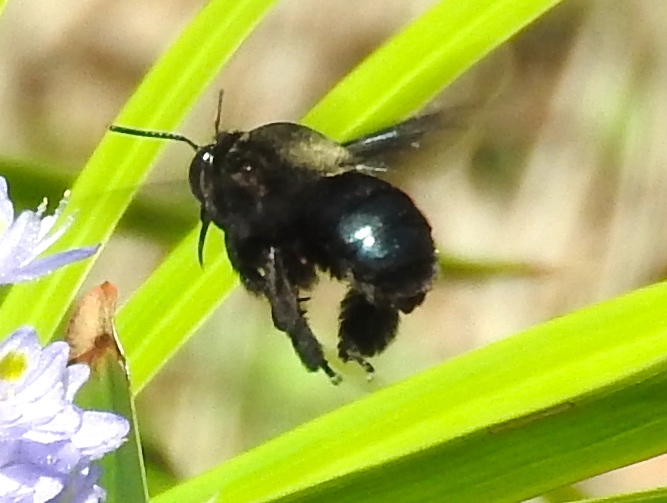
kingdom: Animalia
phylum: Arthropoda
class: Insecta
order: Hymenoptera
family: Apidae
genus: Centris
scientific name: Centris
